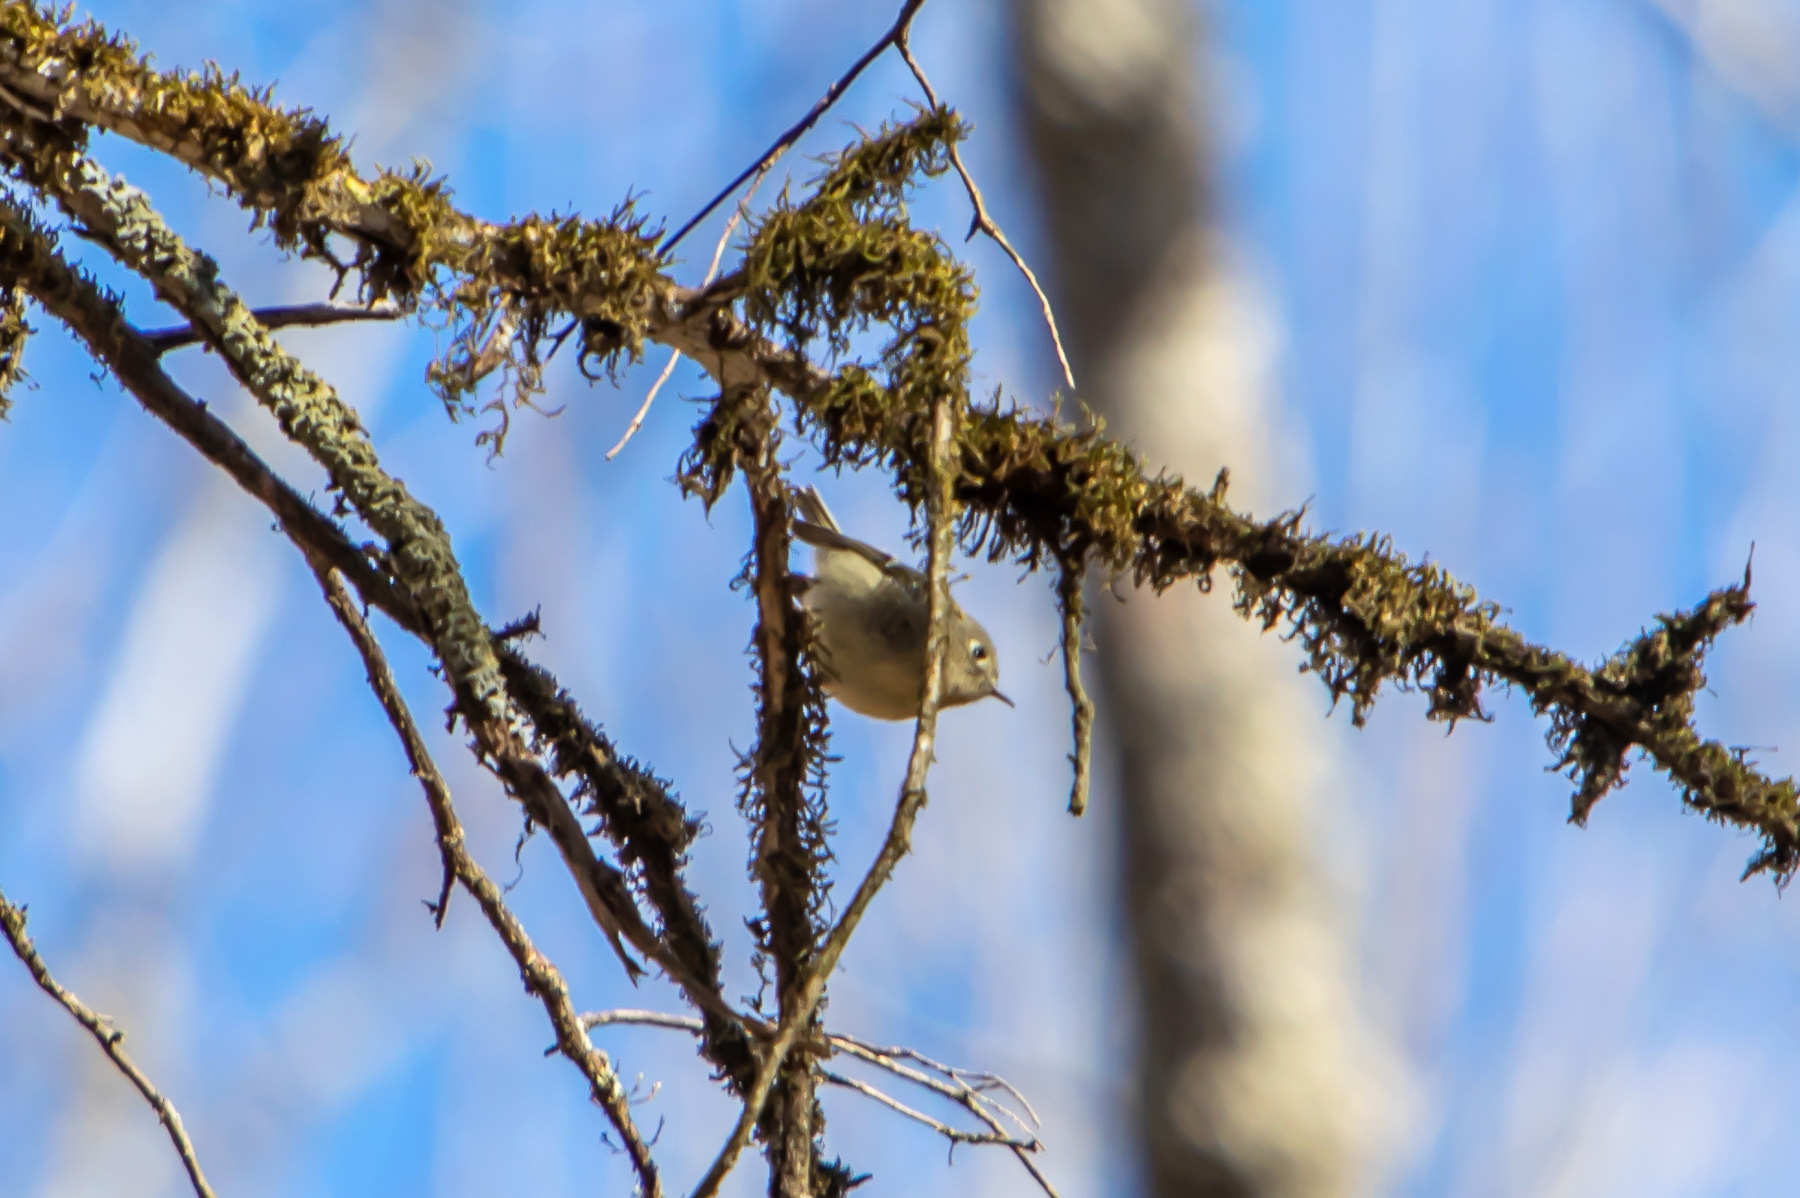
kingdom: Animalia
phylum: Chordata
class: Aves
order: Passeriformes
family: Regulidae
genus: Regulus
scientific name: Regulus calendula
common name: Ruby-crowned kinglet
